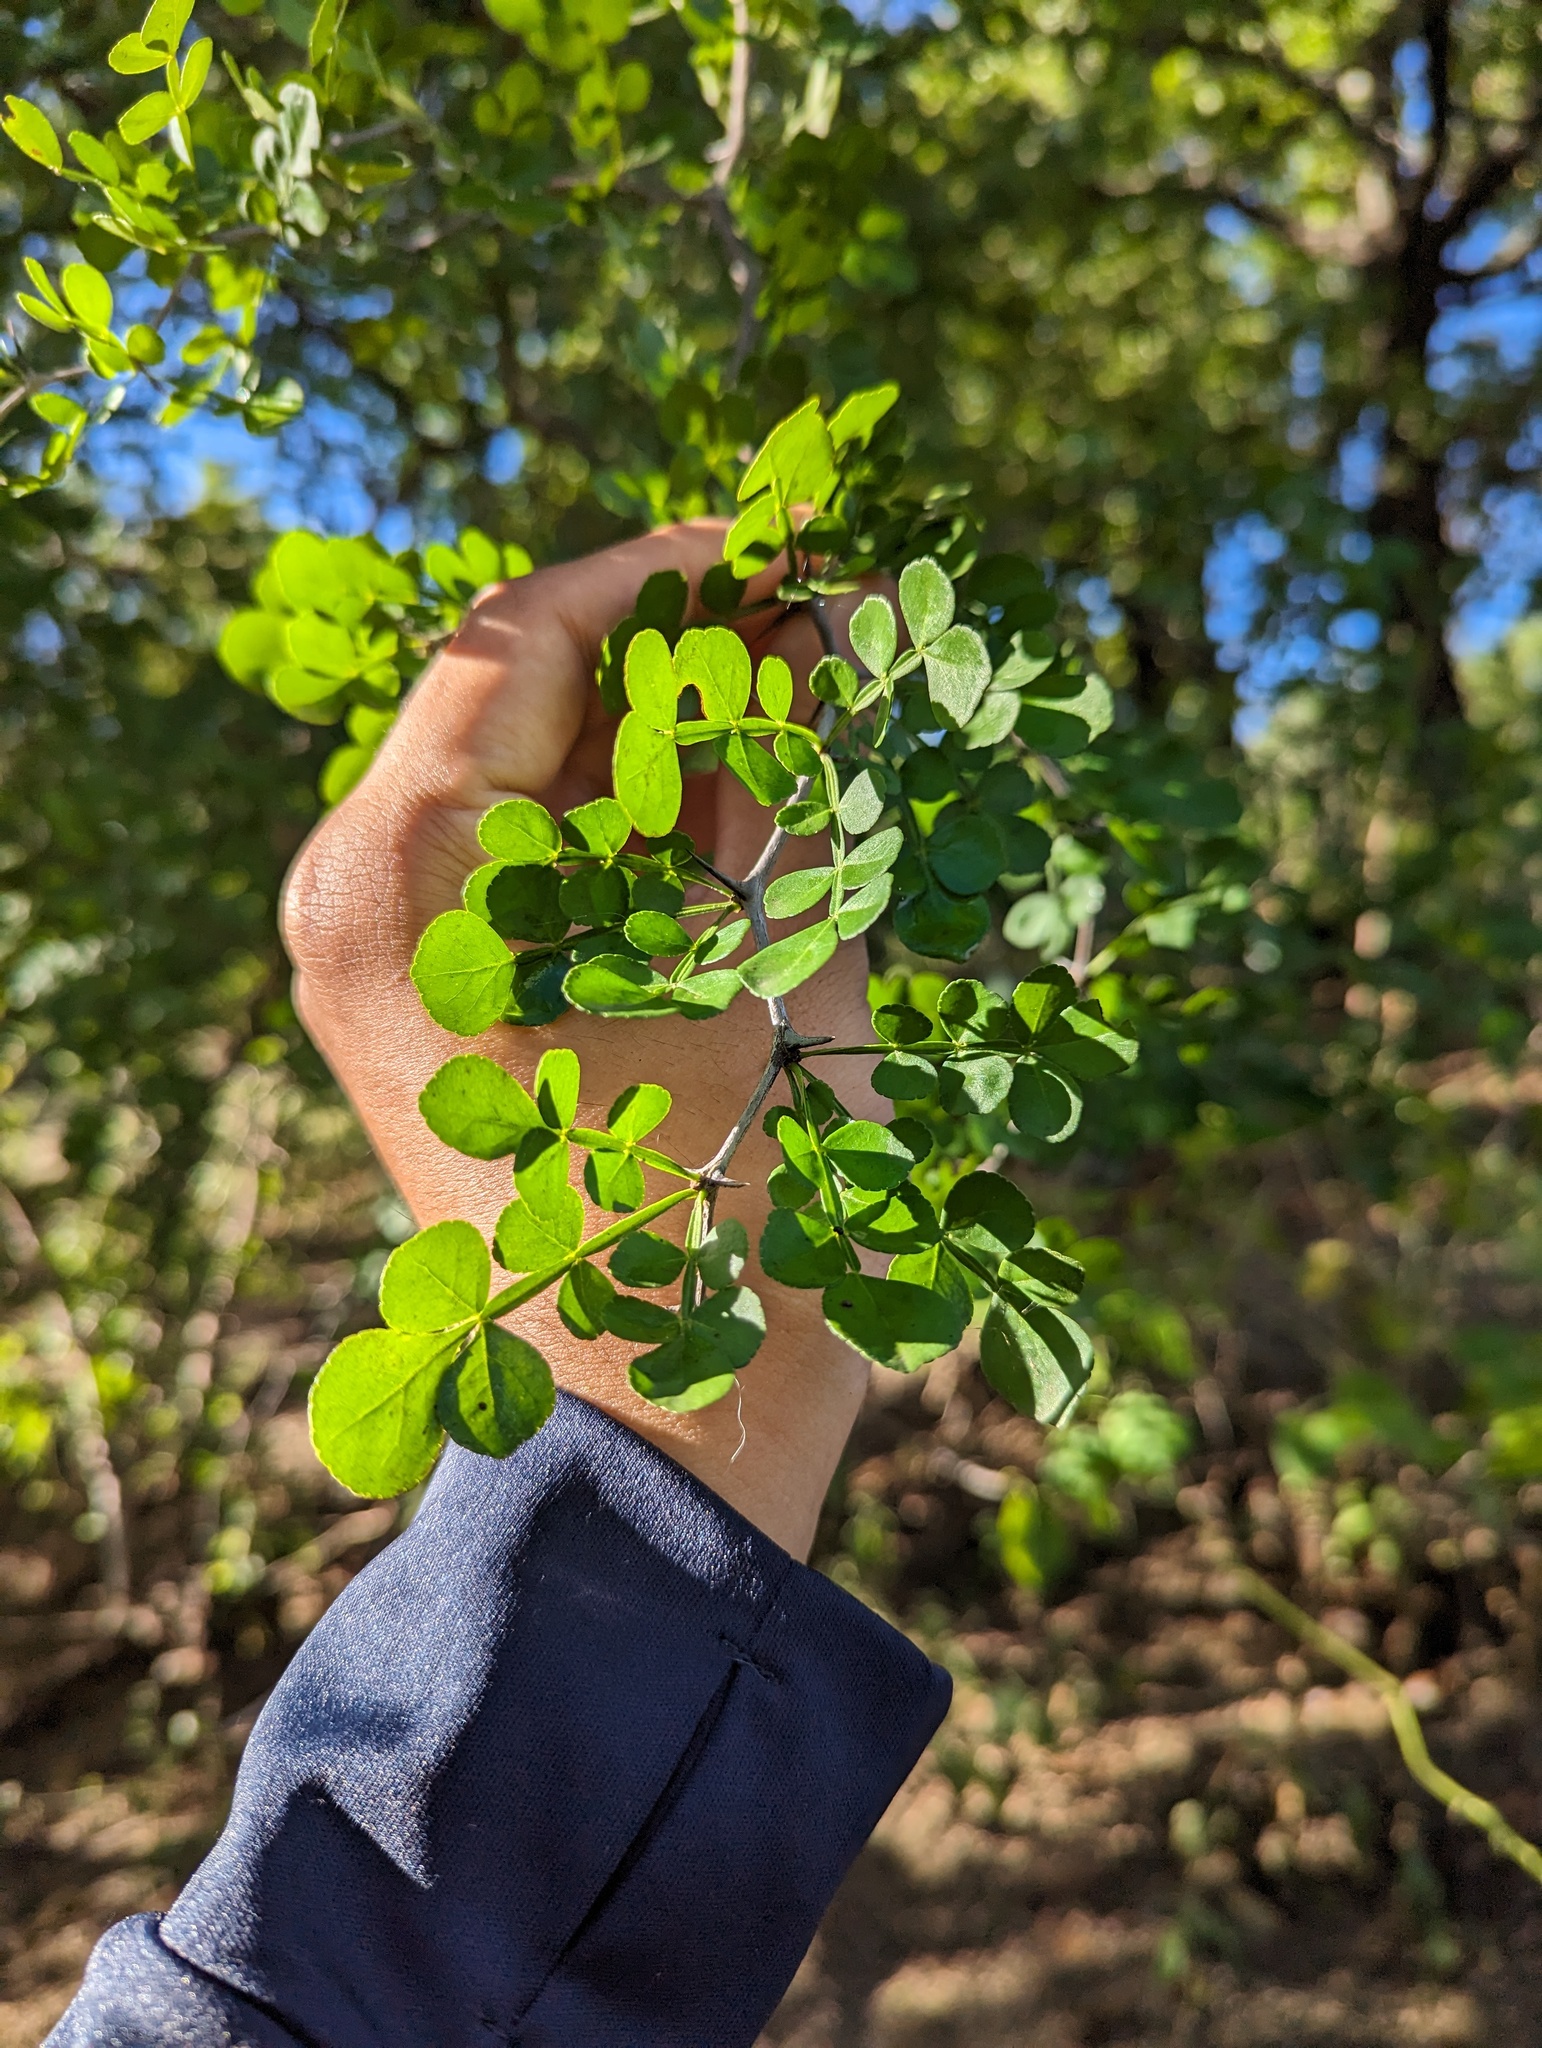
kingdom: Plantae
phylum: Tracheophyta
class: Magnoliopsida
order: Sapindales
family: Rutaceae
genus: Zanthoxylum
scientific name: Zanthoxylum fagara
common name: Lime prickly-ash
